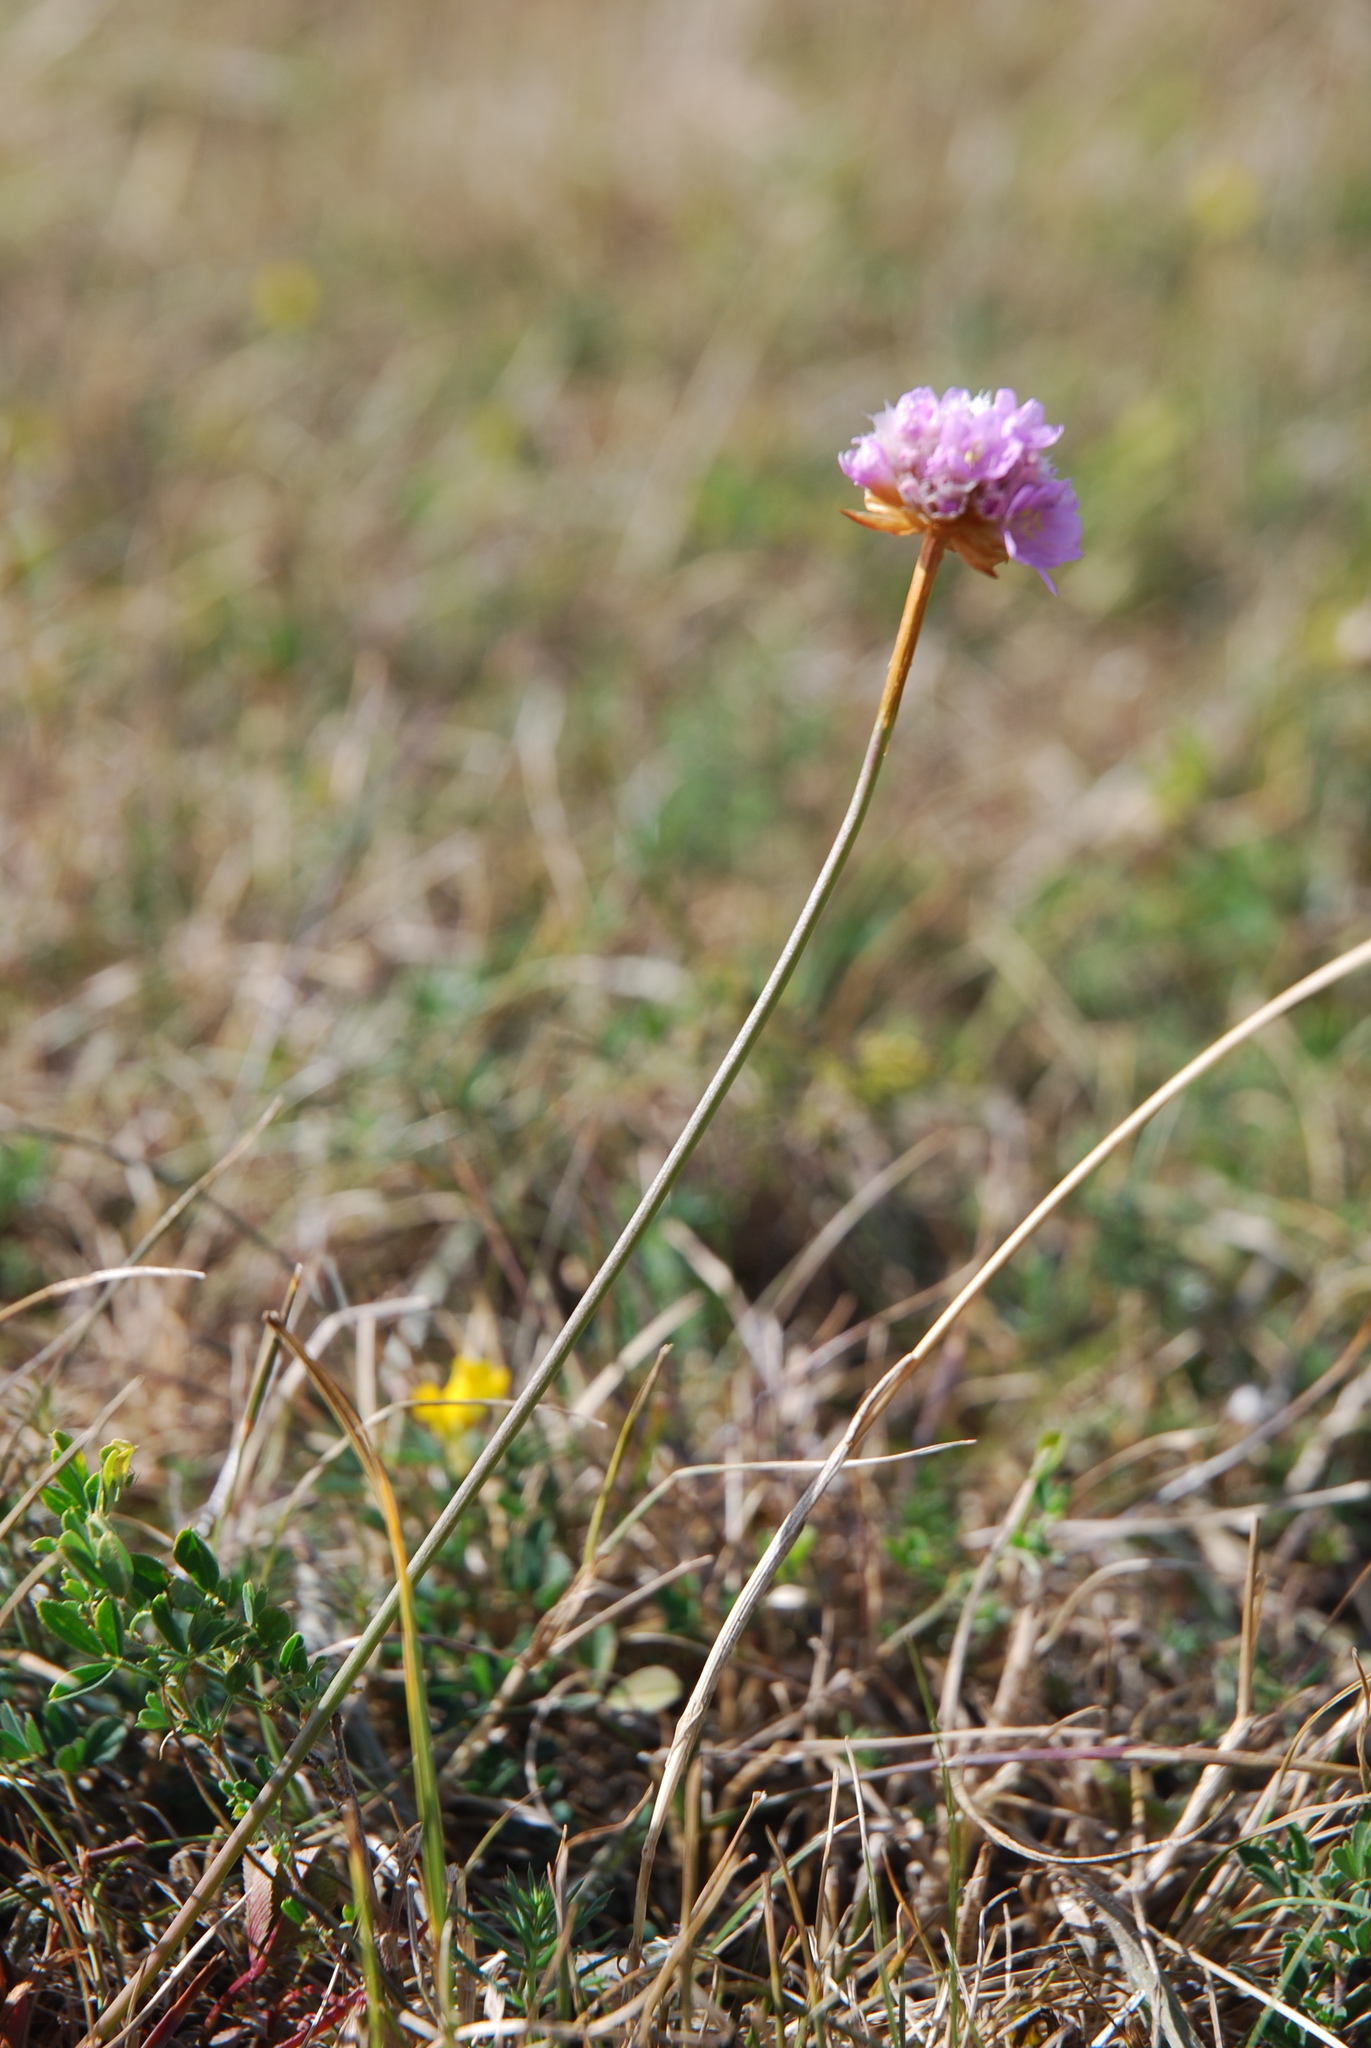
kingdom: Plantae
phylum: Tracheophyta
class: Magnoliopsida
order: Caryophyllales
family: Plumbaginaceae
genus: Armeria
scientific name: Armeria maritima
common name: Thrift
